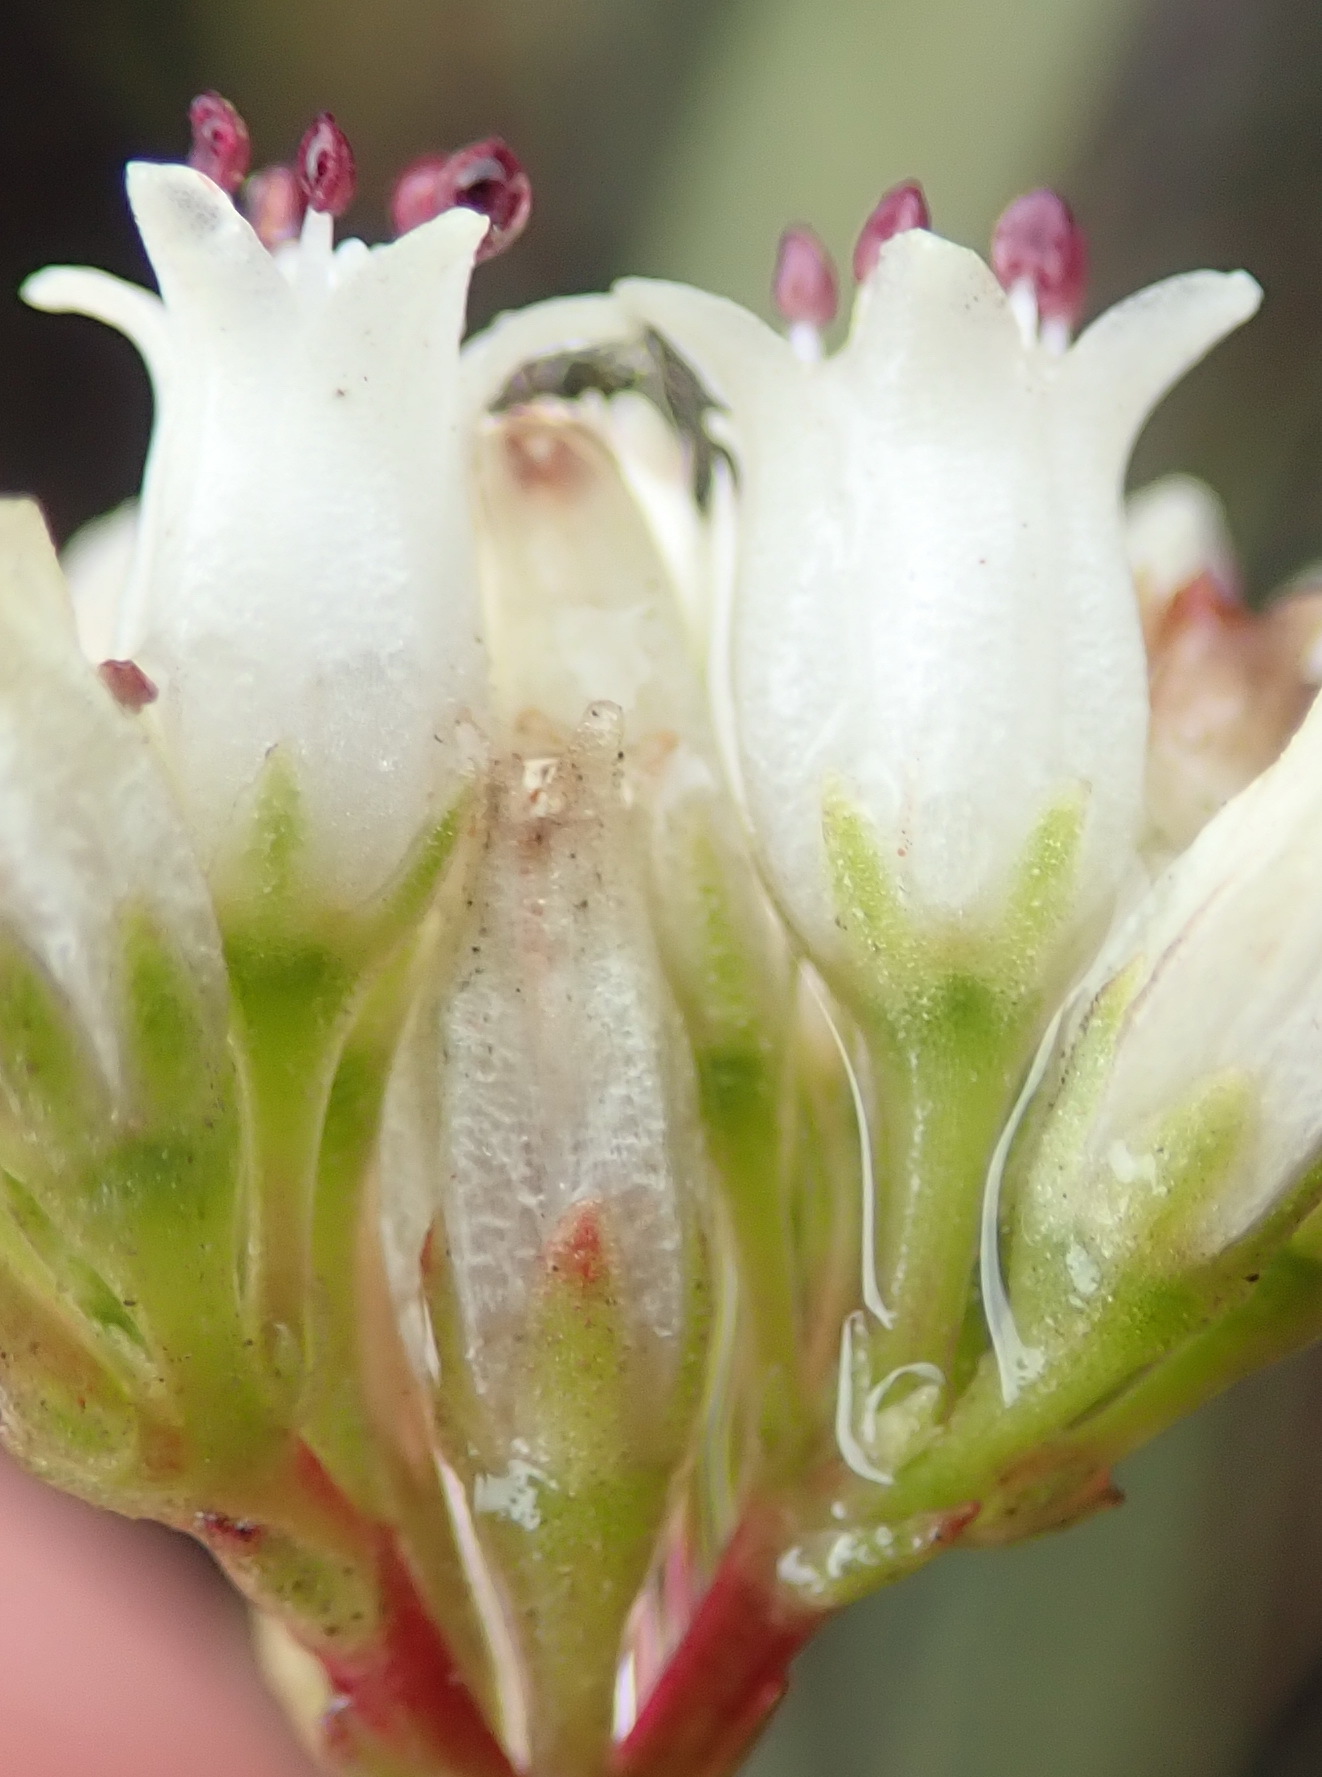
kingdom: Plantae
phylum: Tracheophyta
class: Magnoliopsida
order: Saxifragales
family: Crassulaceae
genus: Crassula
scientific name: Crassula biplanata
